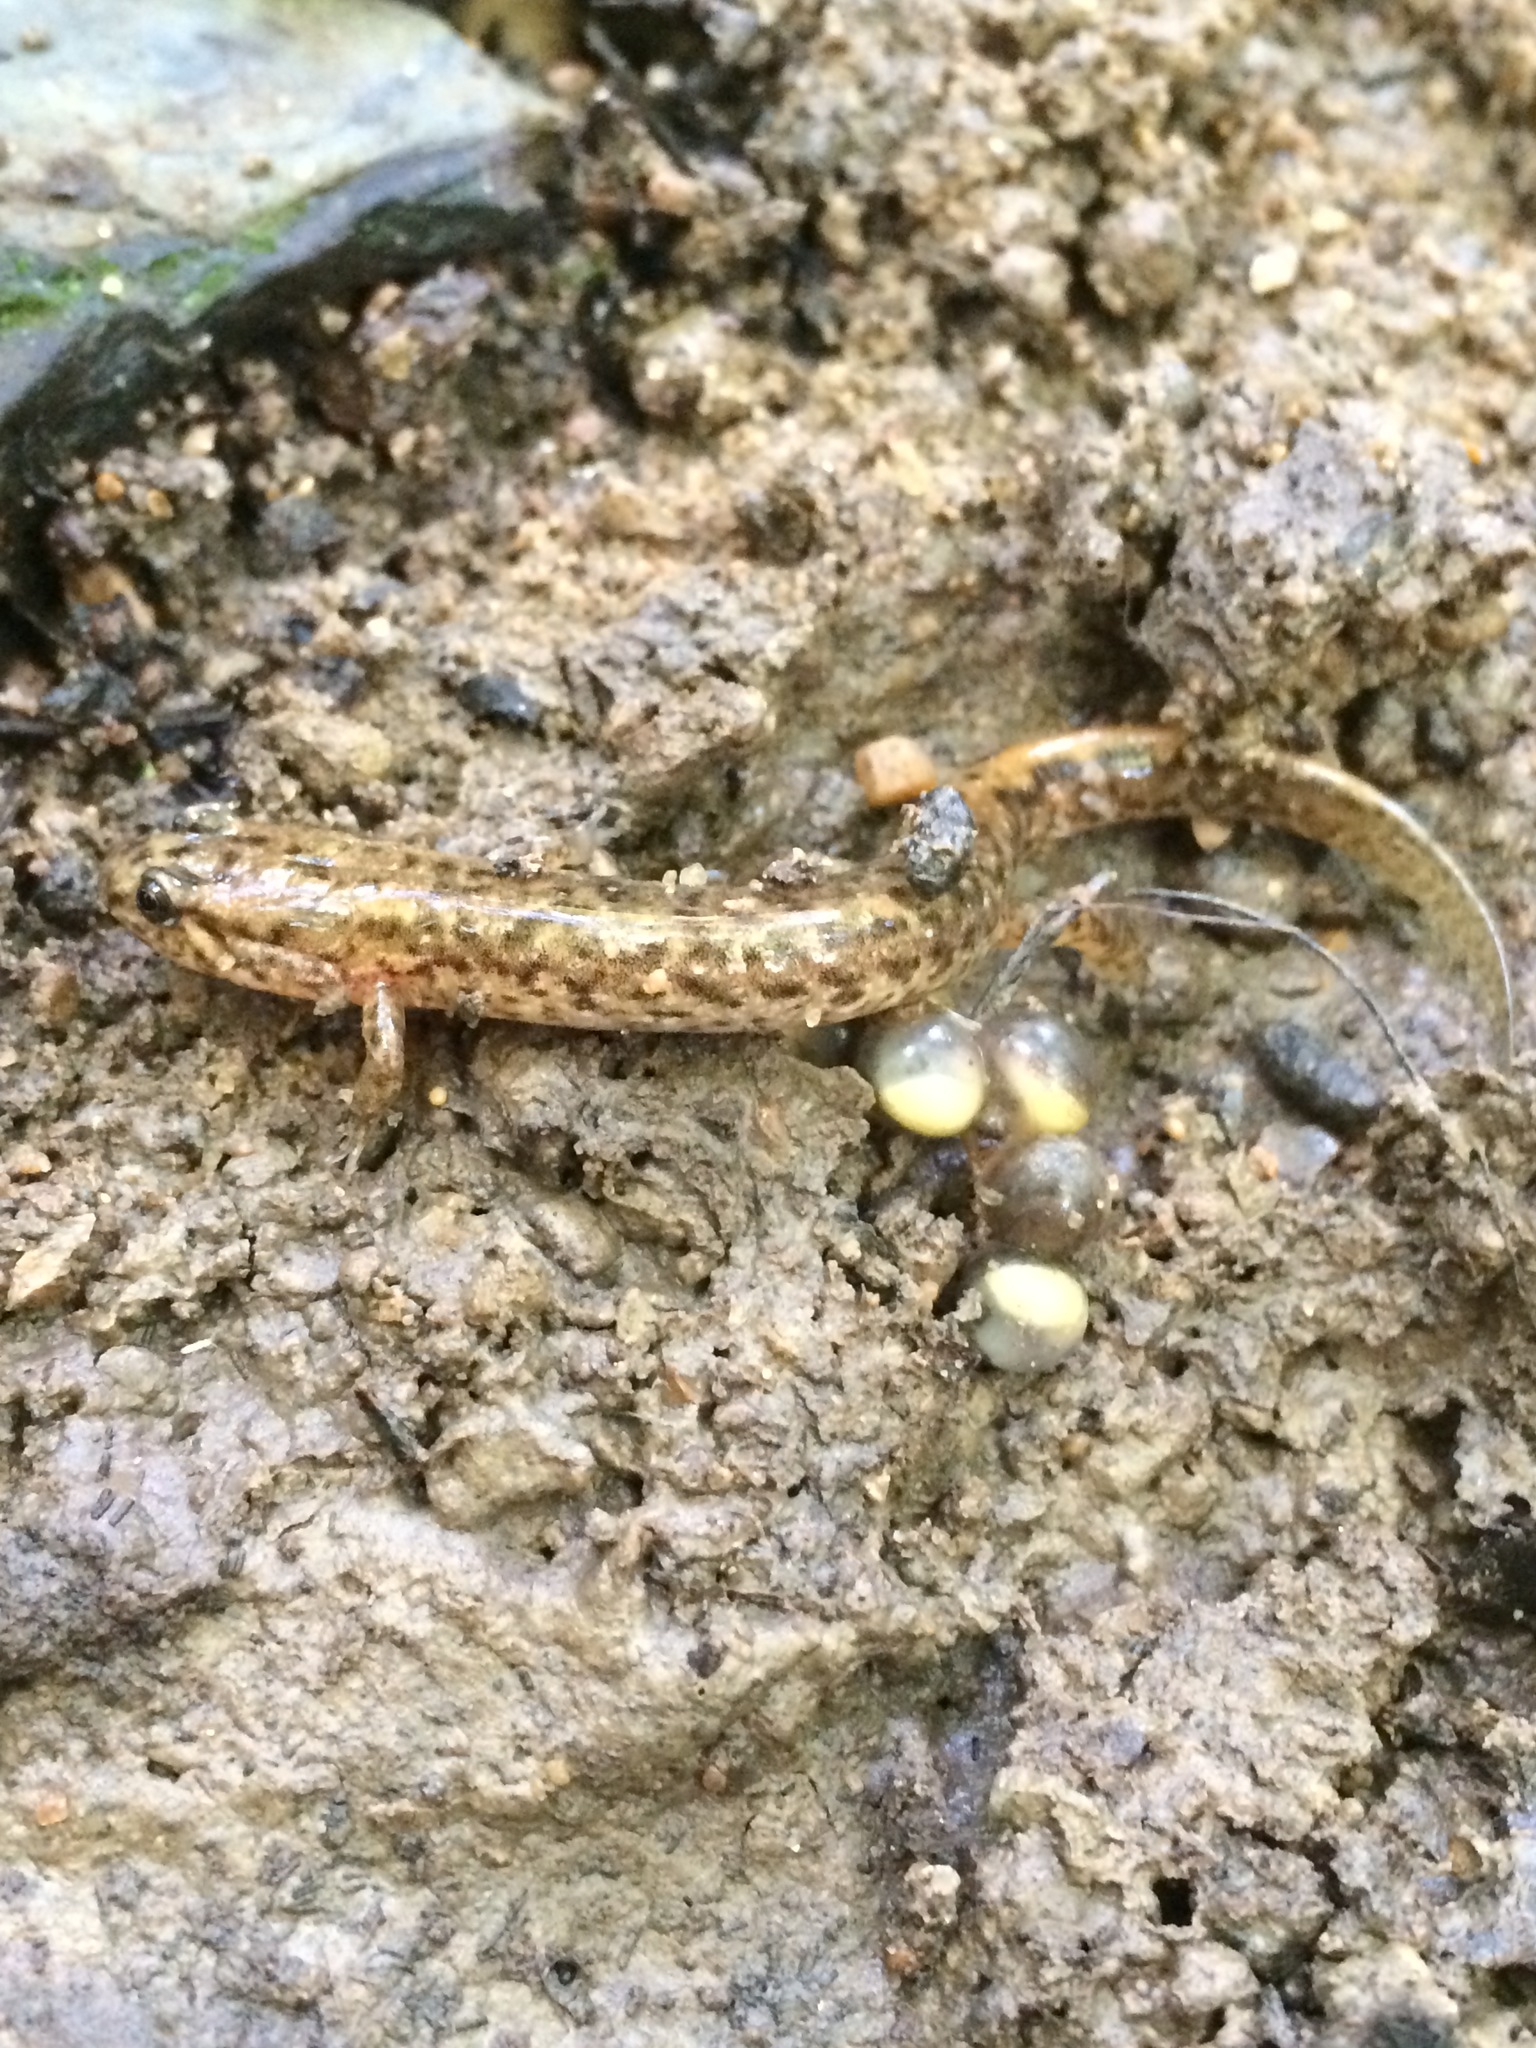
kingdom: Animalia
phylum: Chordata
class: Amphibia
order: Caudata
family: Plethodontidae
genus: Desmognathus
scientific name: Desmognathus fuscus
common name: Northern dusky salamander
